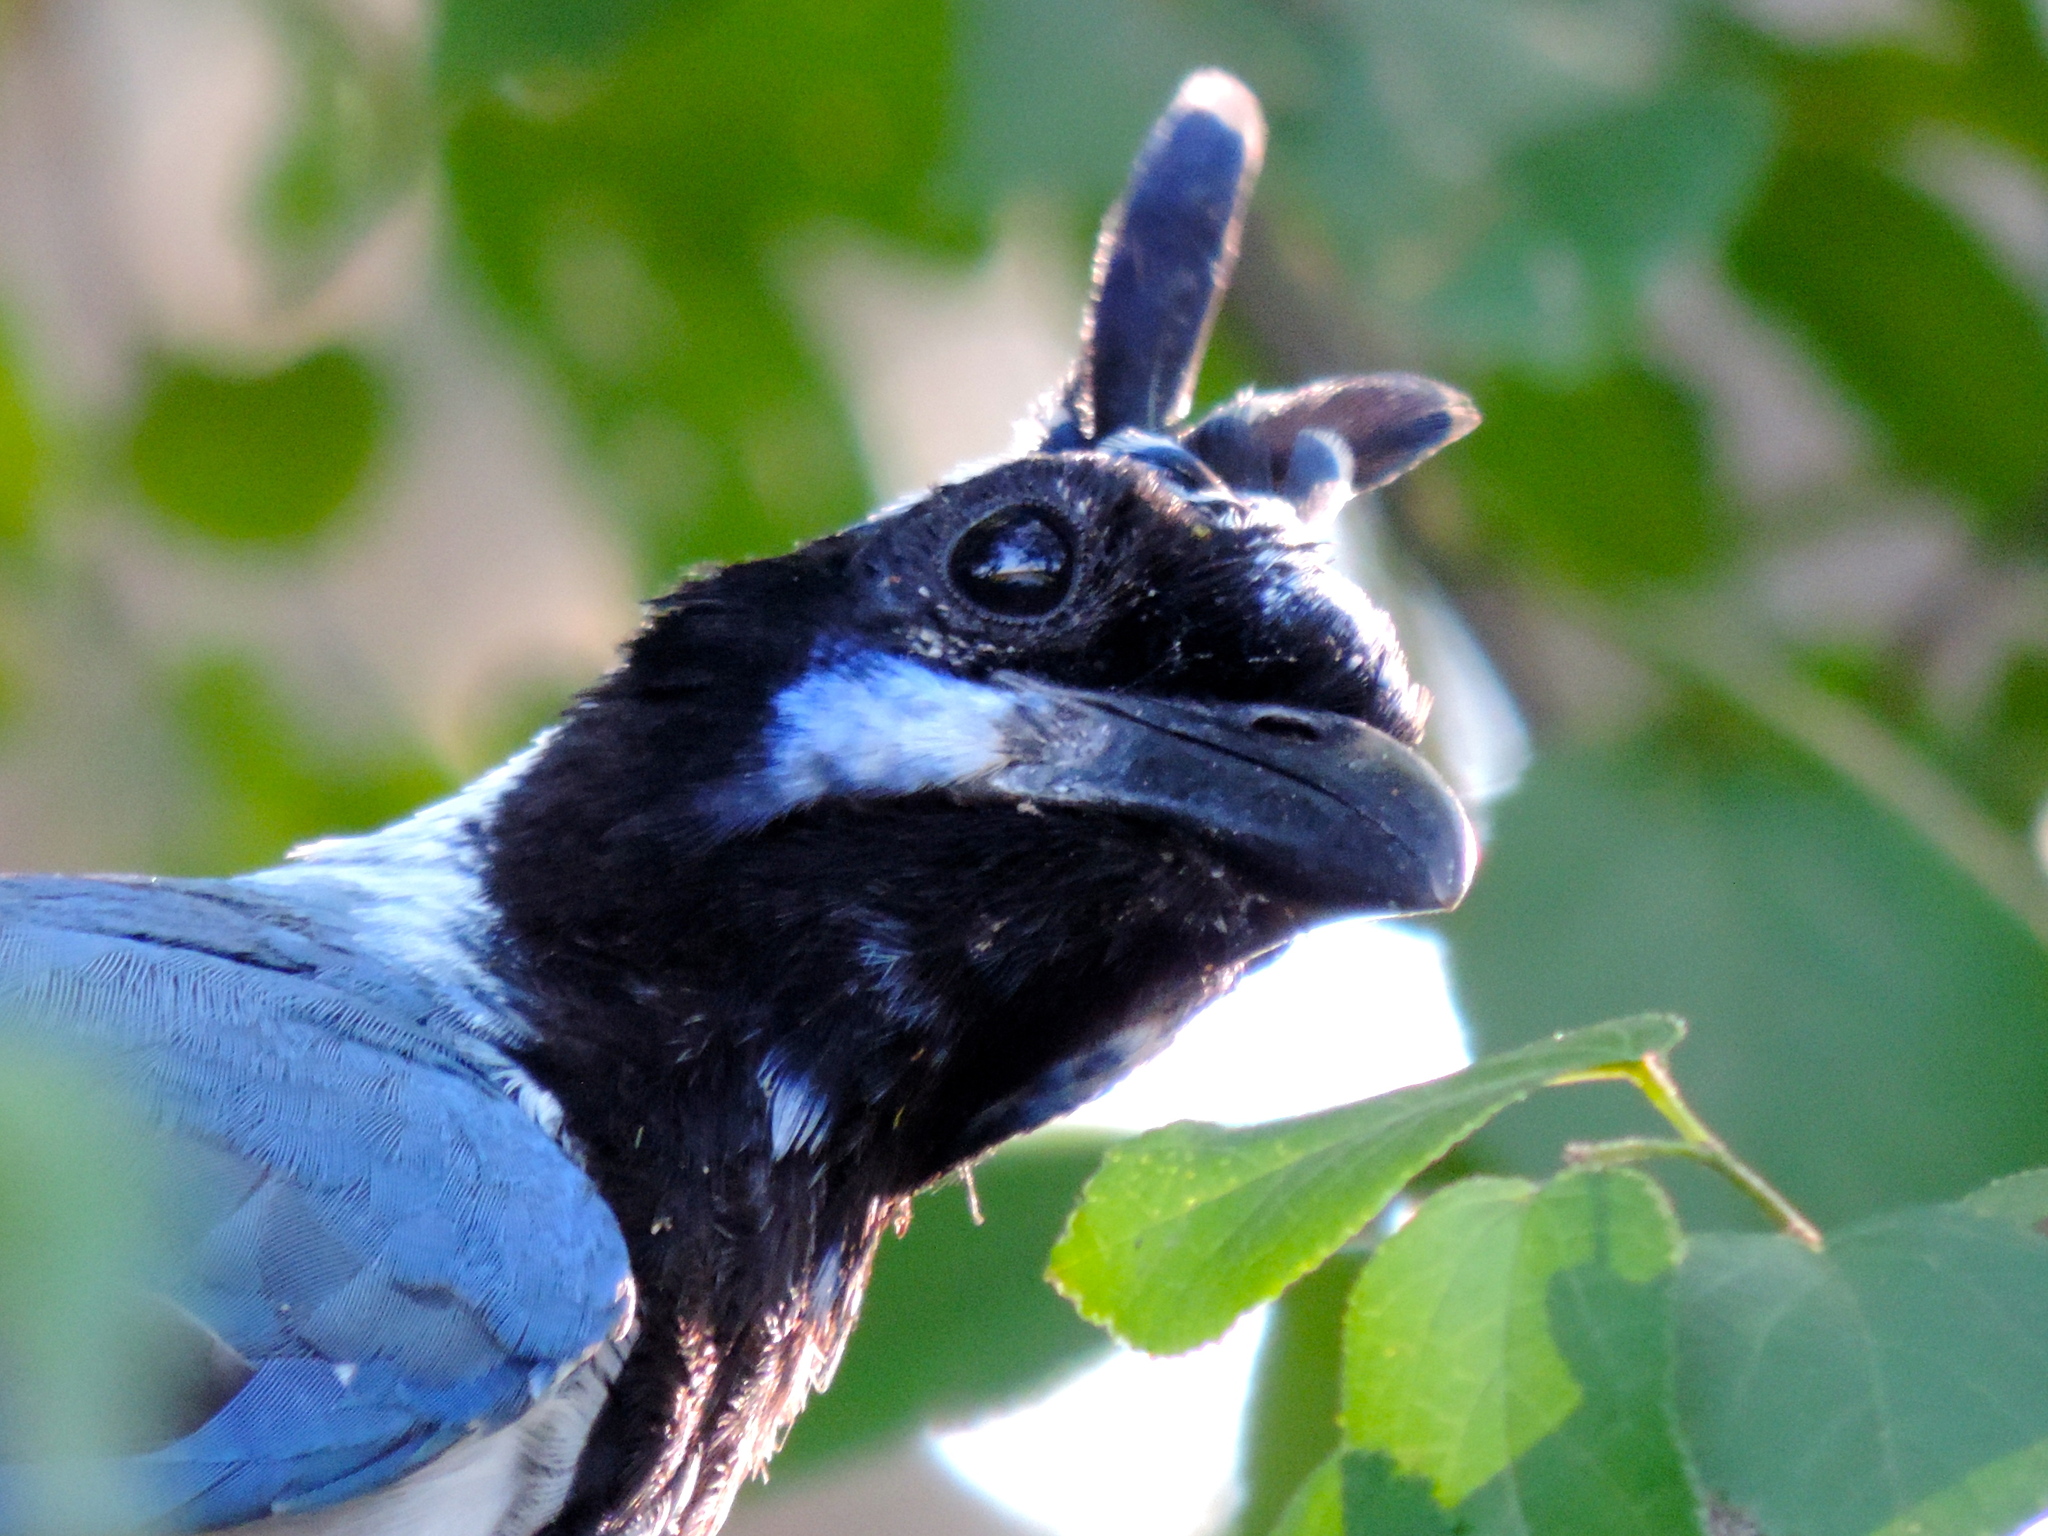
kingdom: Animalia
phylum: Chordata
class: Aves
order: Passeriformes
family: Corvidae
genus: Calocitta
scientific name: Calocitta colliei
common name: Black-throated magpie-jay
